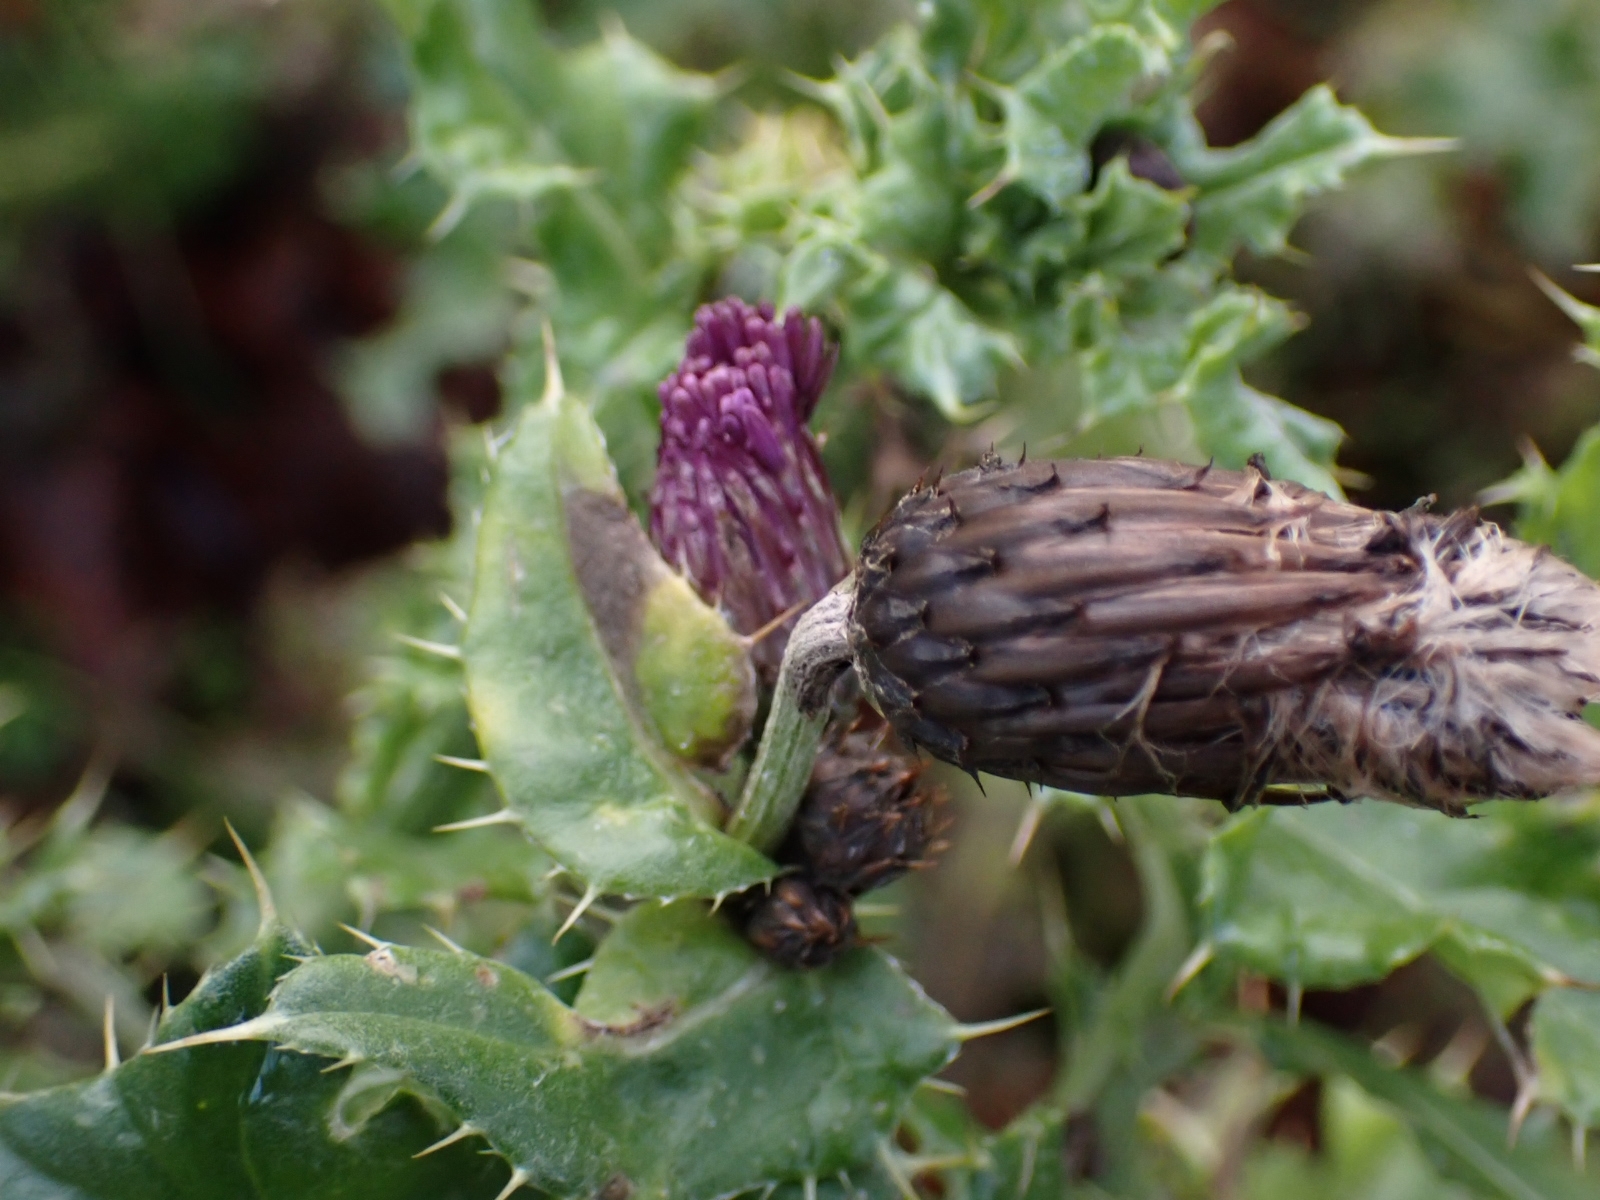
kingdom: Plantae
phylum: Tracheophyta
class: Magnoliopsida
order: Asterales
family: Asteraceae
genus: Cirsium
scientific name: Cirsium arvense
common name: Creeping thistle
